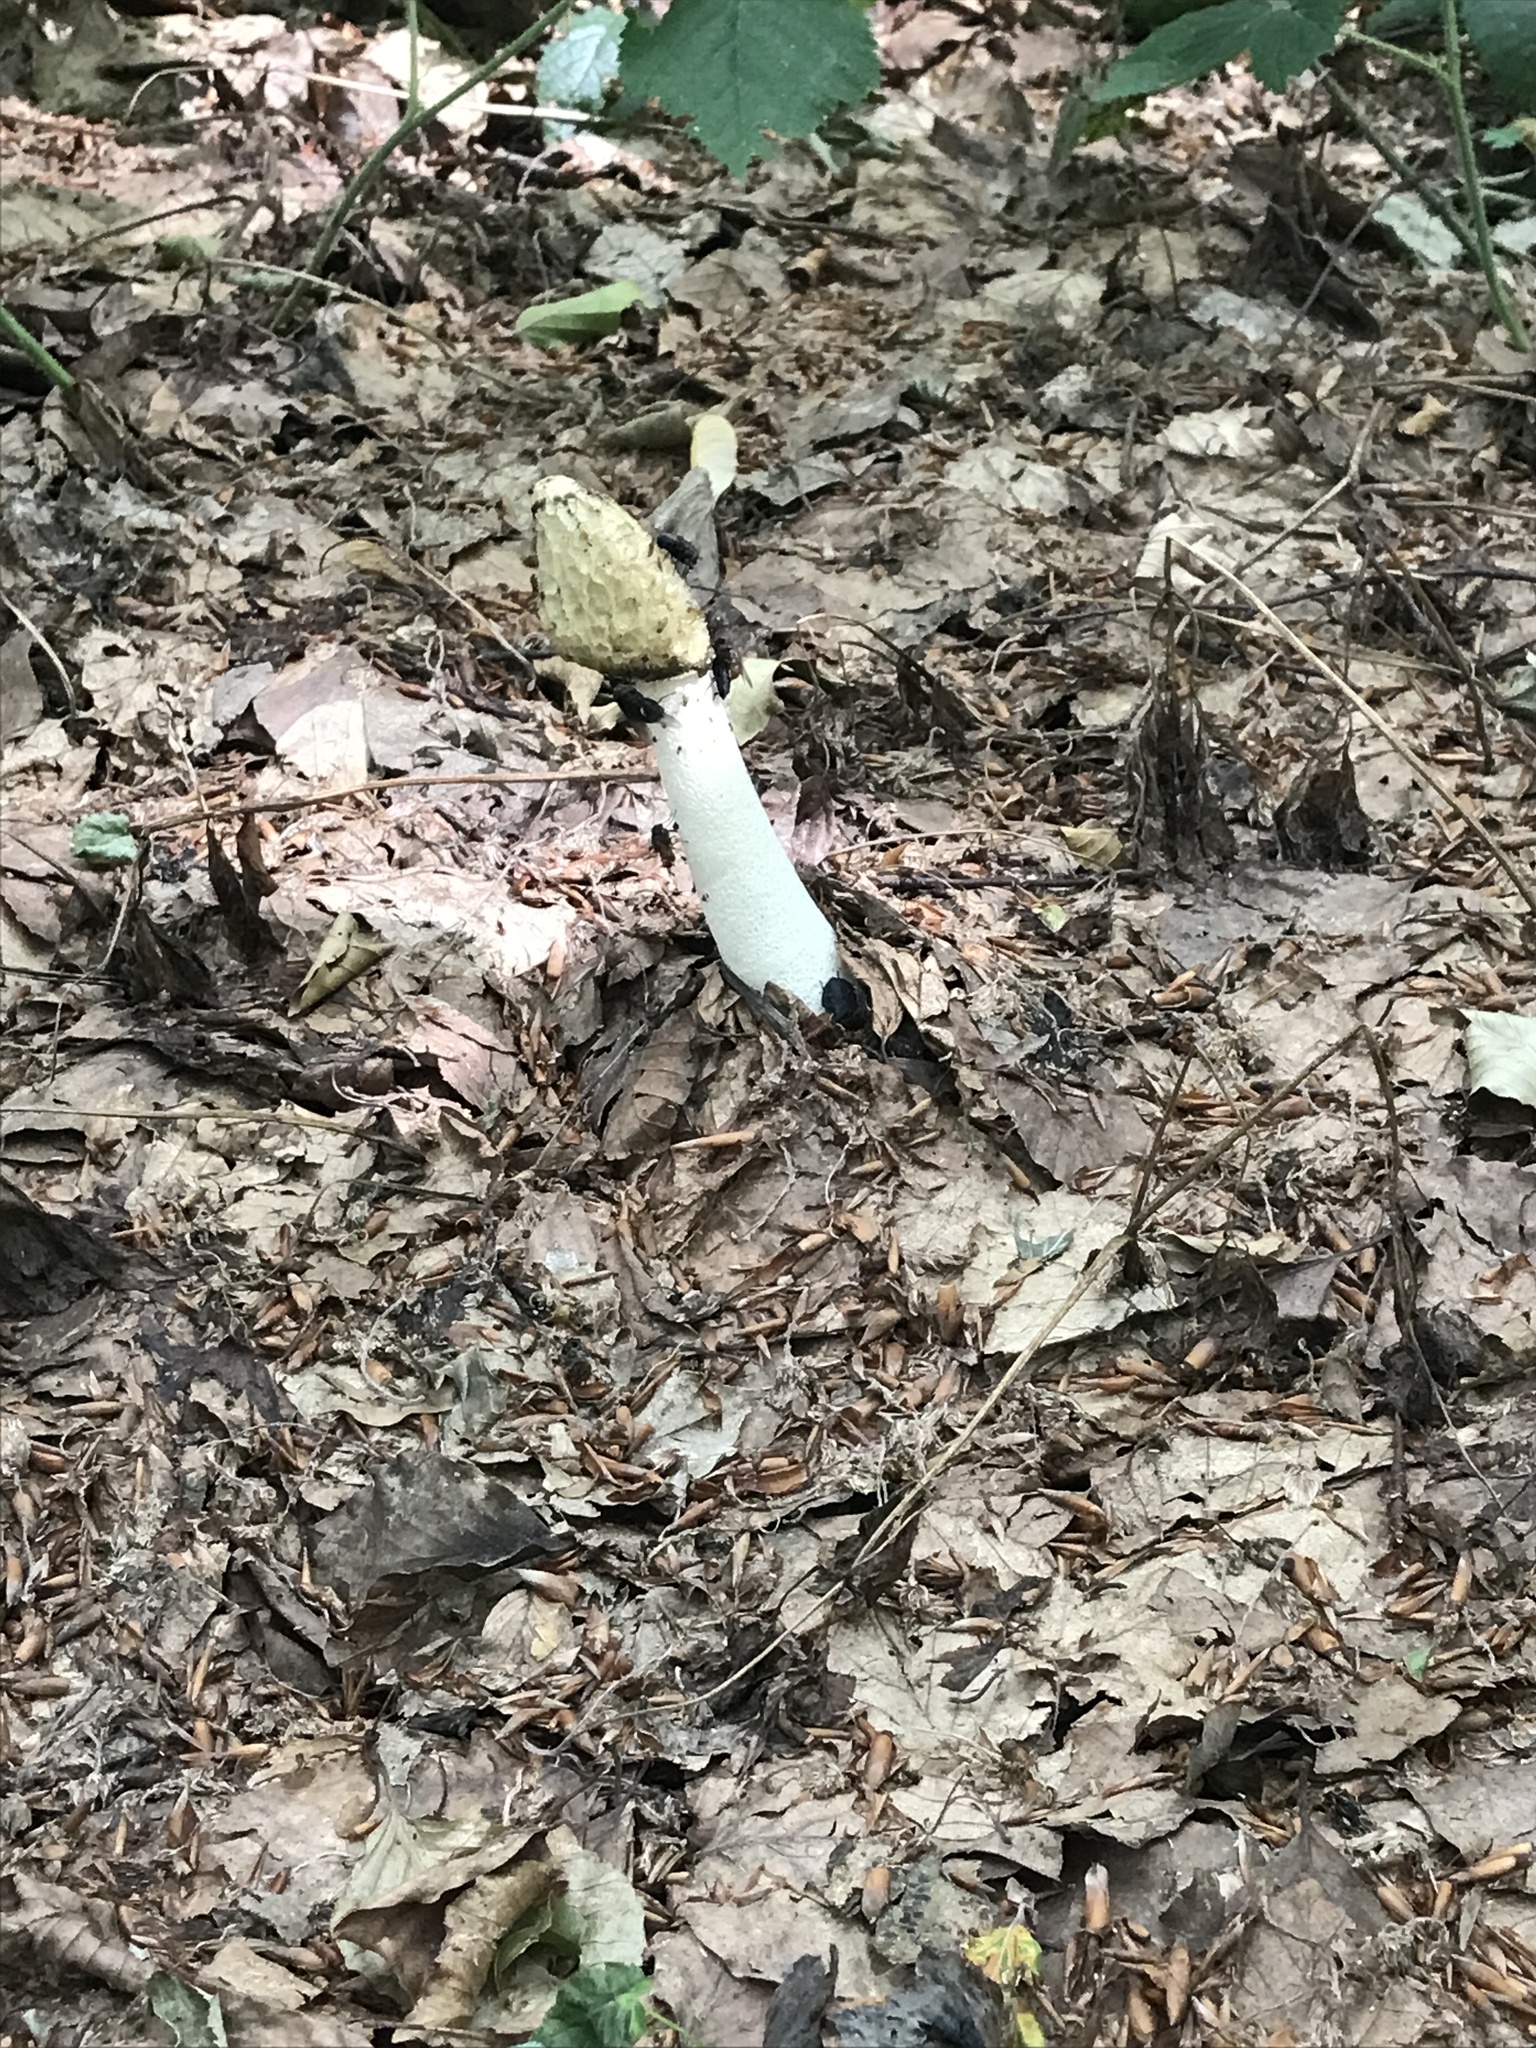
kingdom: Fungi
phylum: Basidiomycota
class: Agaricomycetes
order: Phallales
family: Phallaceae
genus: Phallus
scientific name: Phallus impudicus
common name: Common stinkhorn
